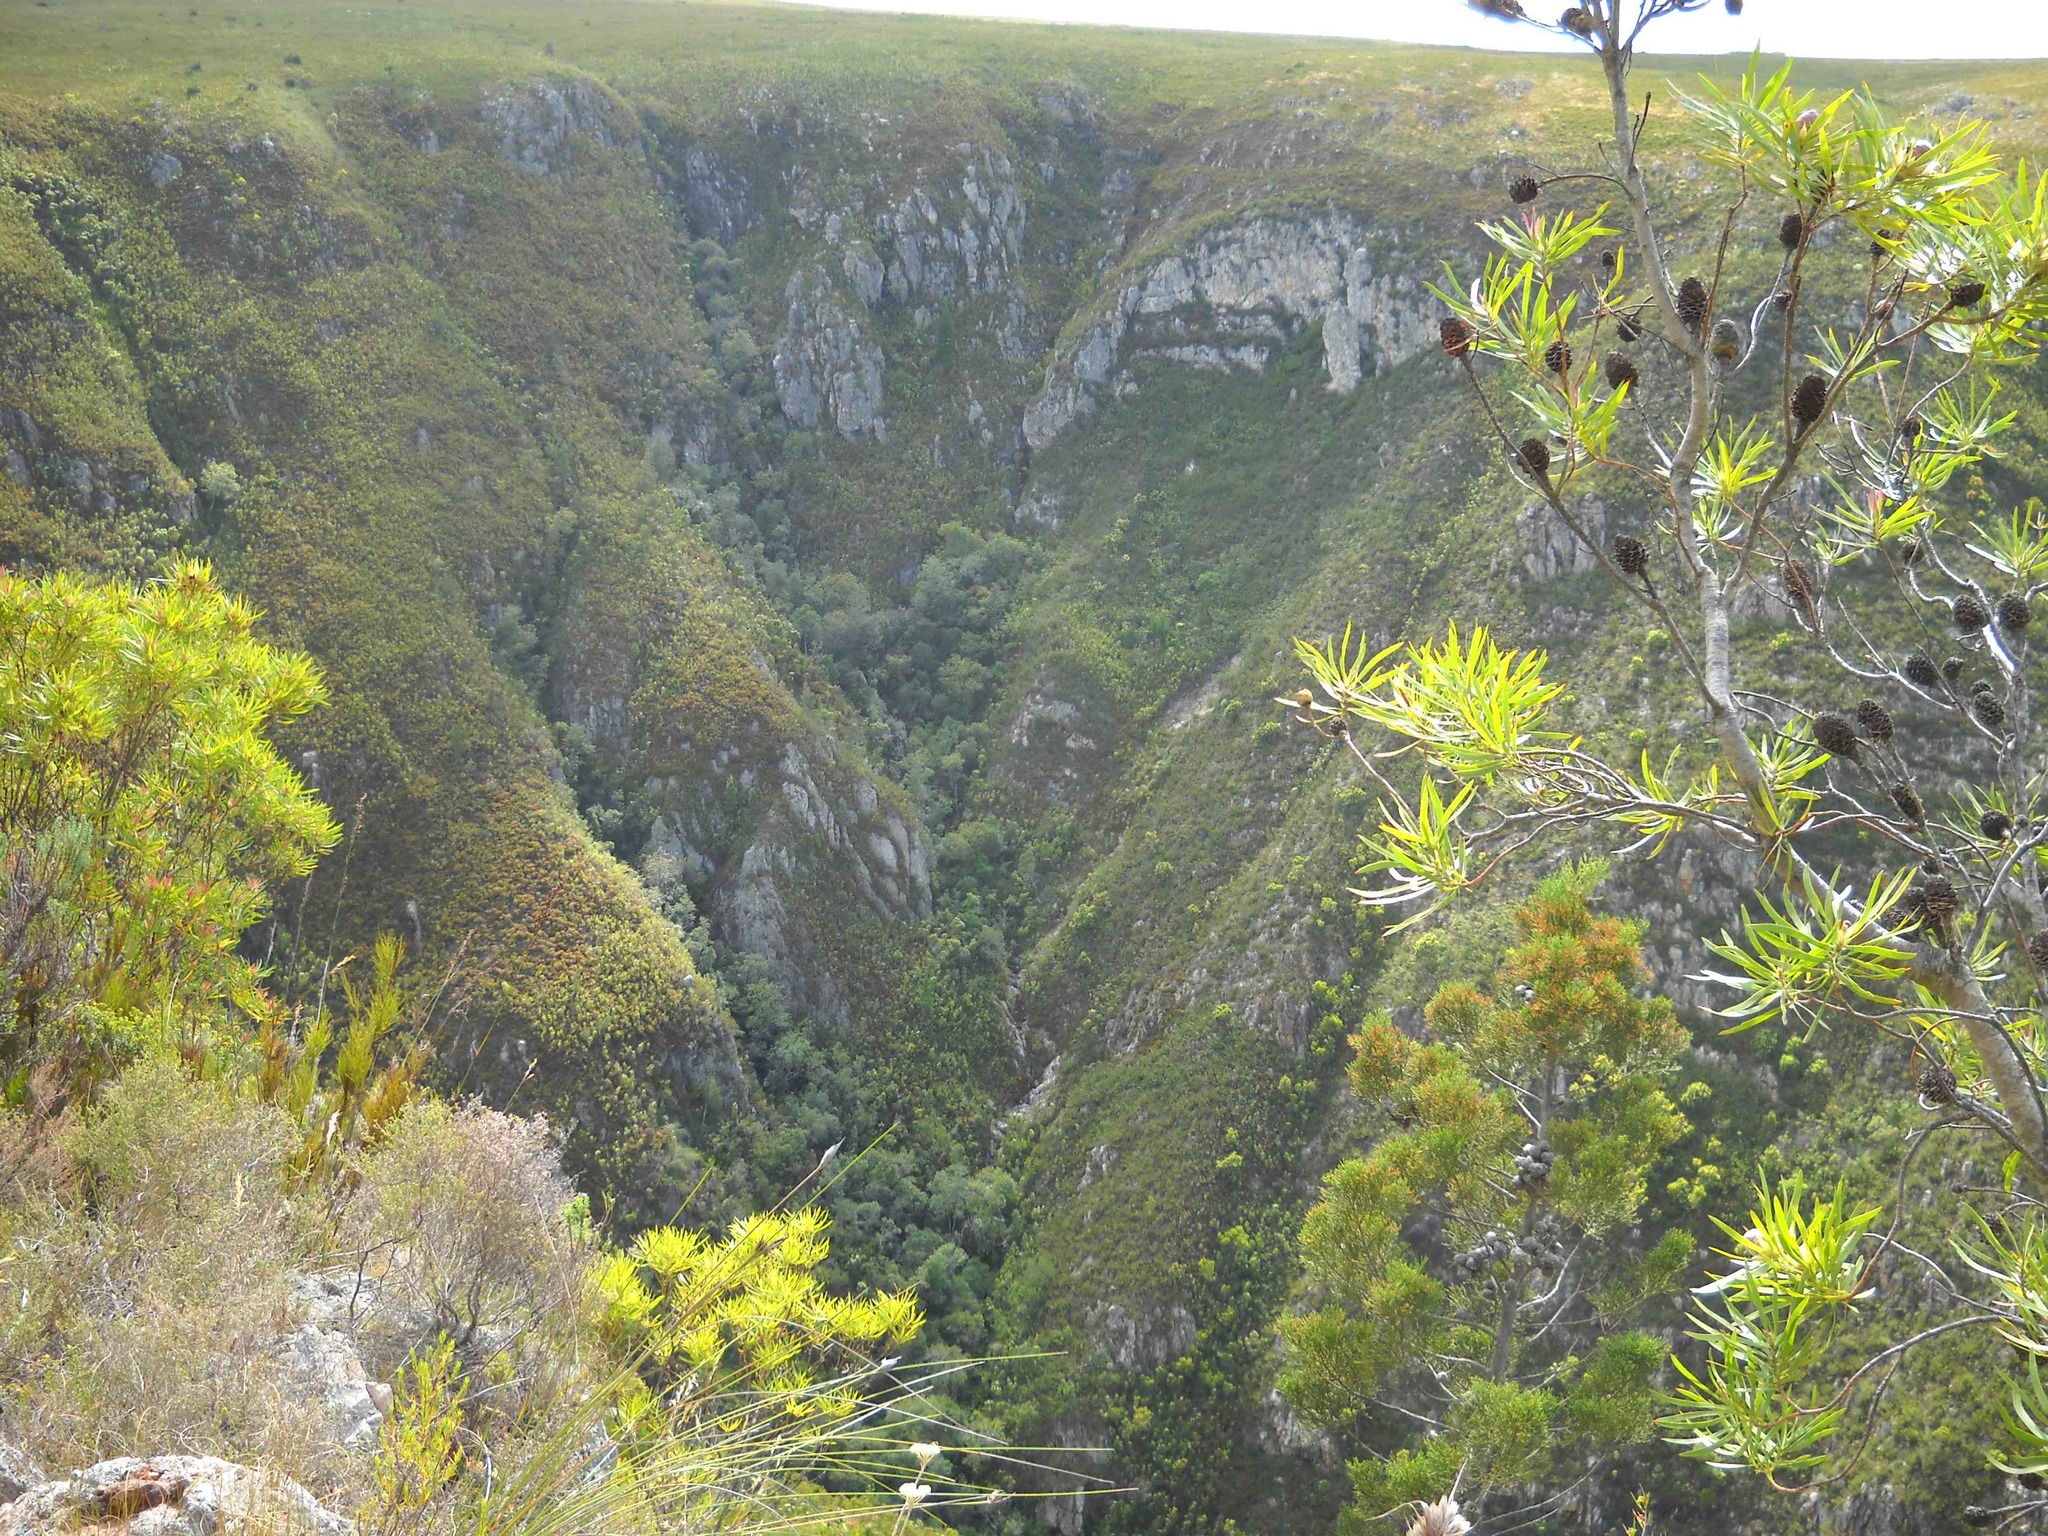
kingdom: Plantae
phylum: Tracheophyta
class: Magnoliopsida
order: Proteales
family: Proteaceae
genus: Leucadendron
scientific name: Leucadendron eucalyptifolium
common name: Gum-leaved conebush
